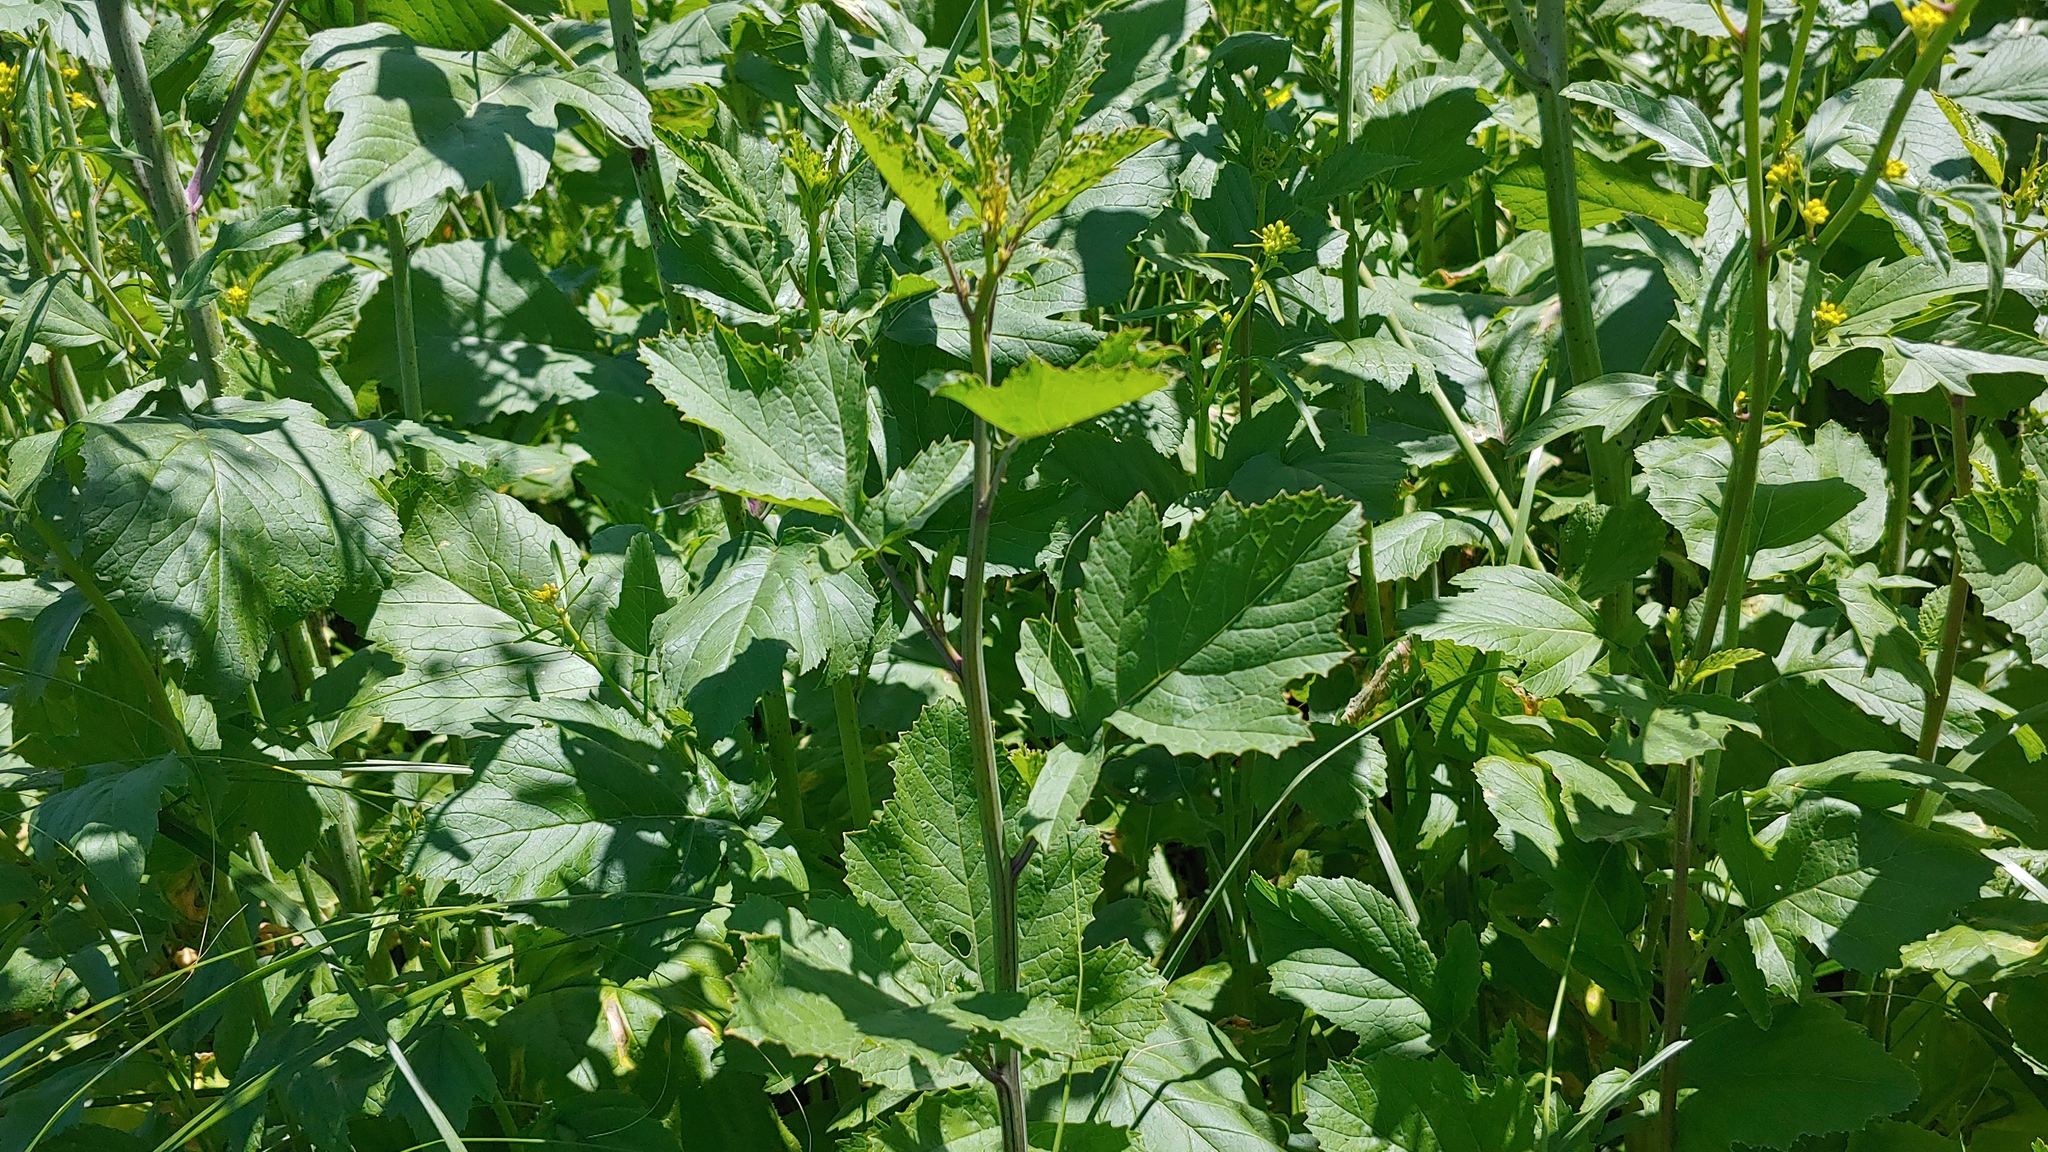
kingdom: Plantae
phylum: Tracheophyta
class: Magnoliopsida
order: Brassicales
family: Brassicaceae
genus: Brassica
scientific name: Brassica nigra
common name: Black mustard
